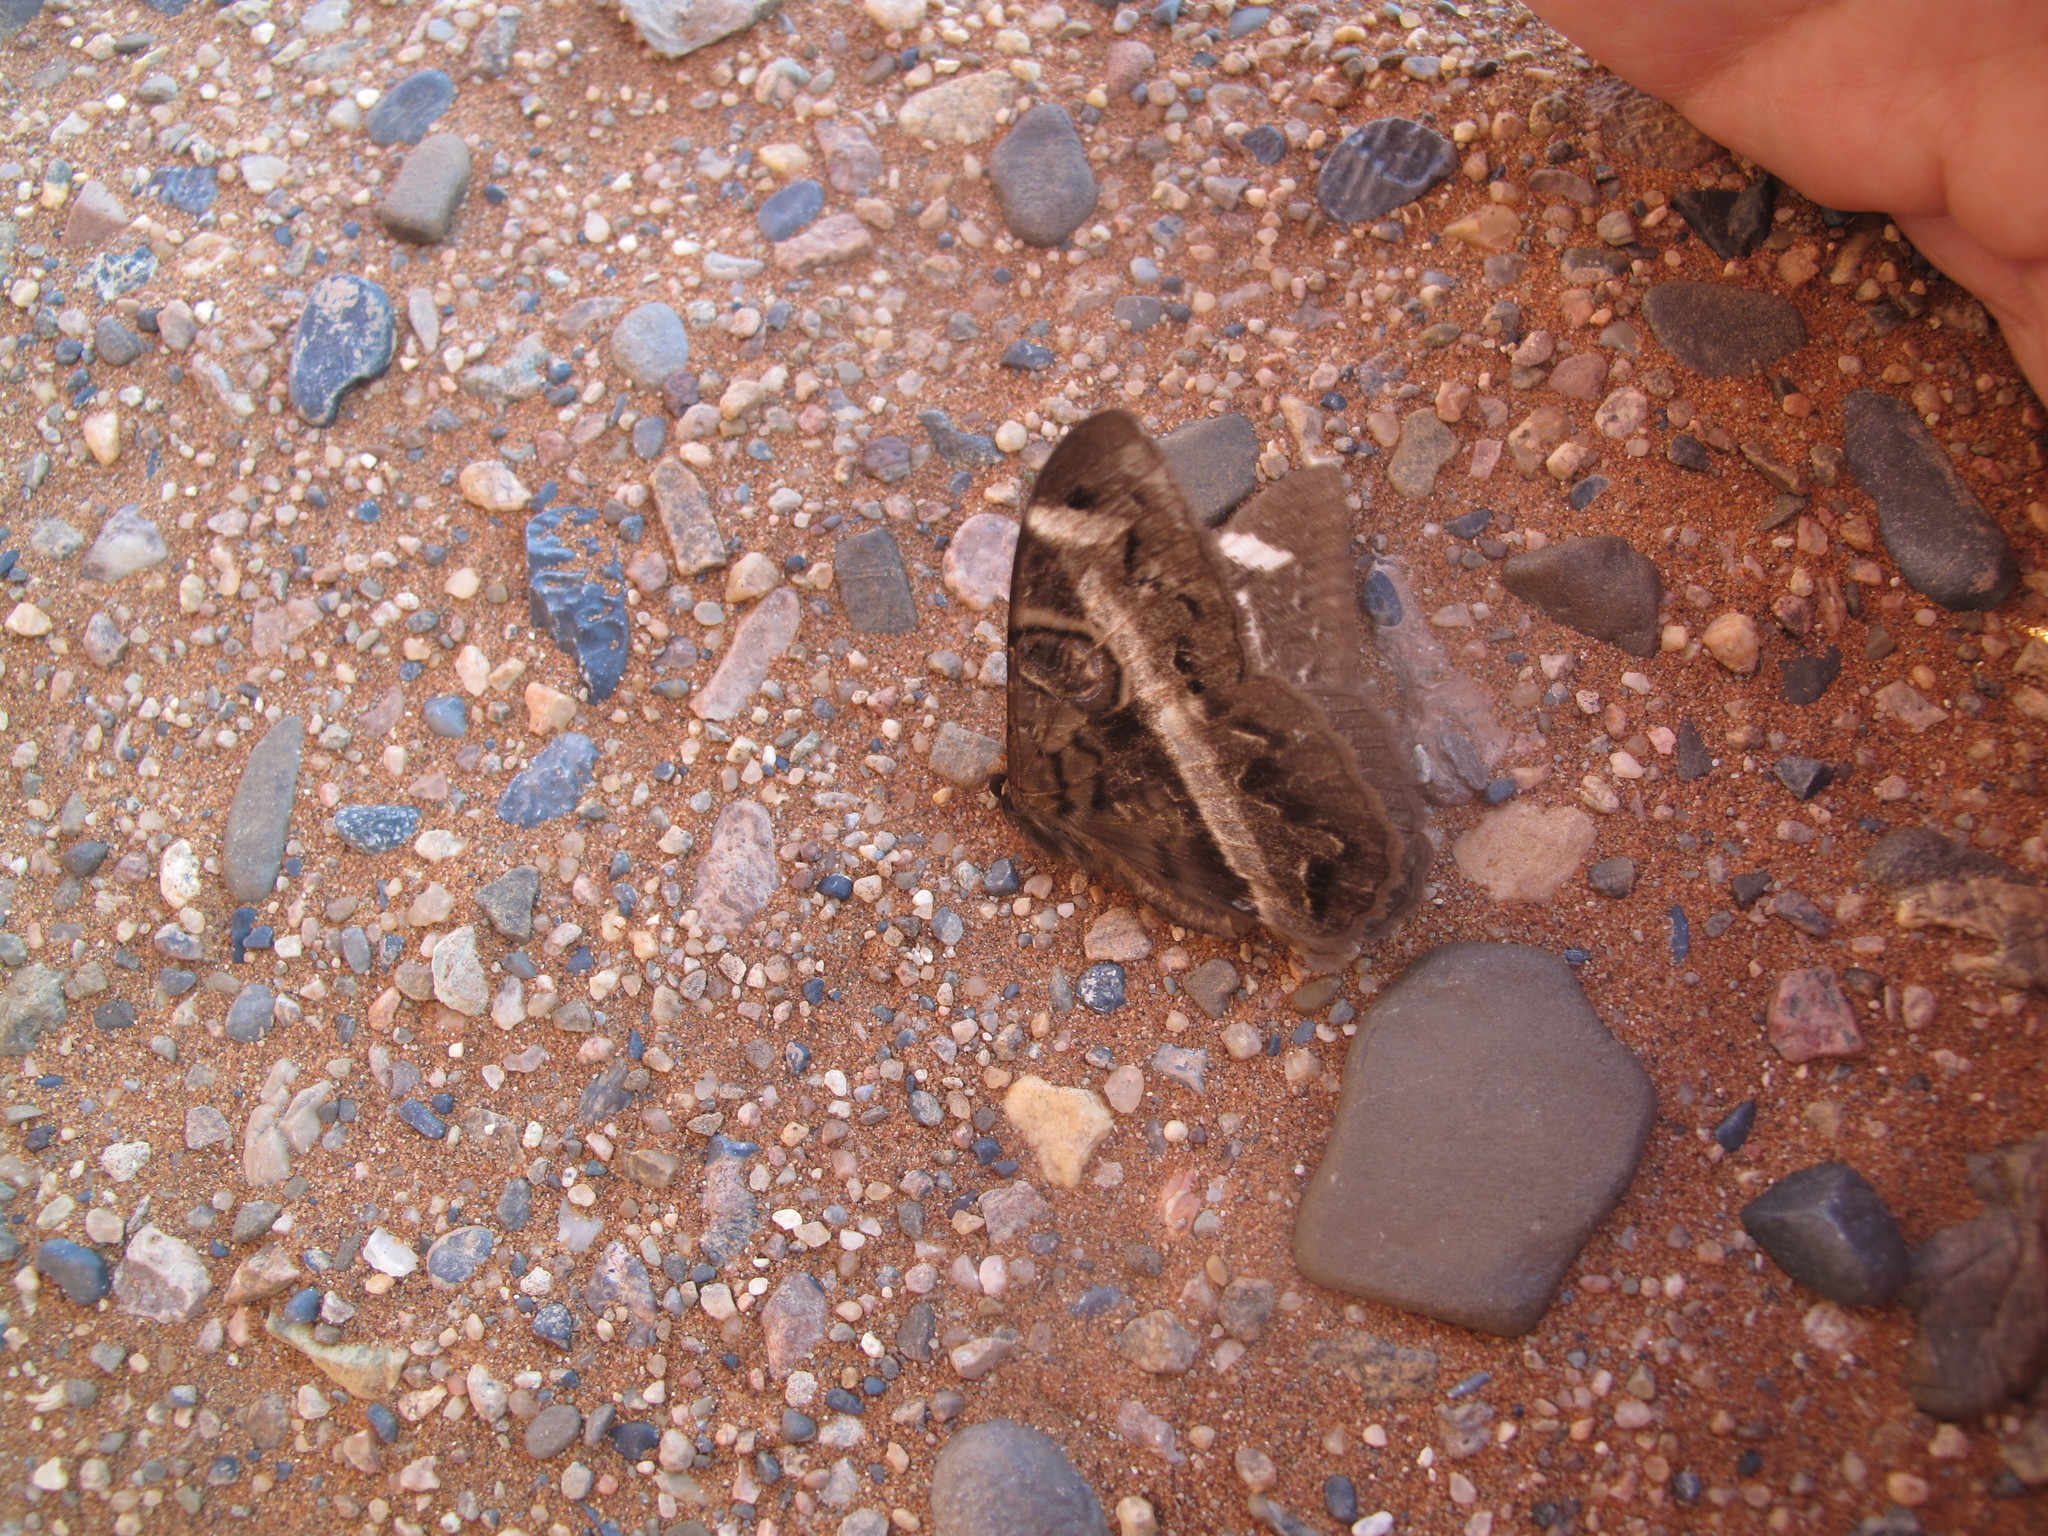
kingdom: Animalia
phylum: Arthropoda
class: Insecta
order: Lepidoptera
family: Erebidae
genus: Cyligramma
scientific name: Cyligramma latona
